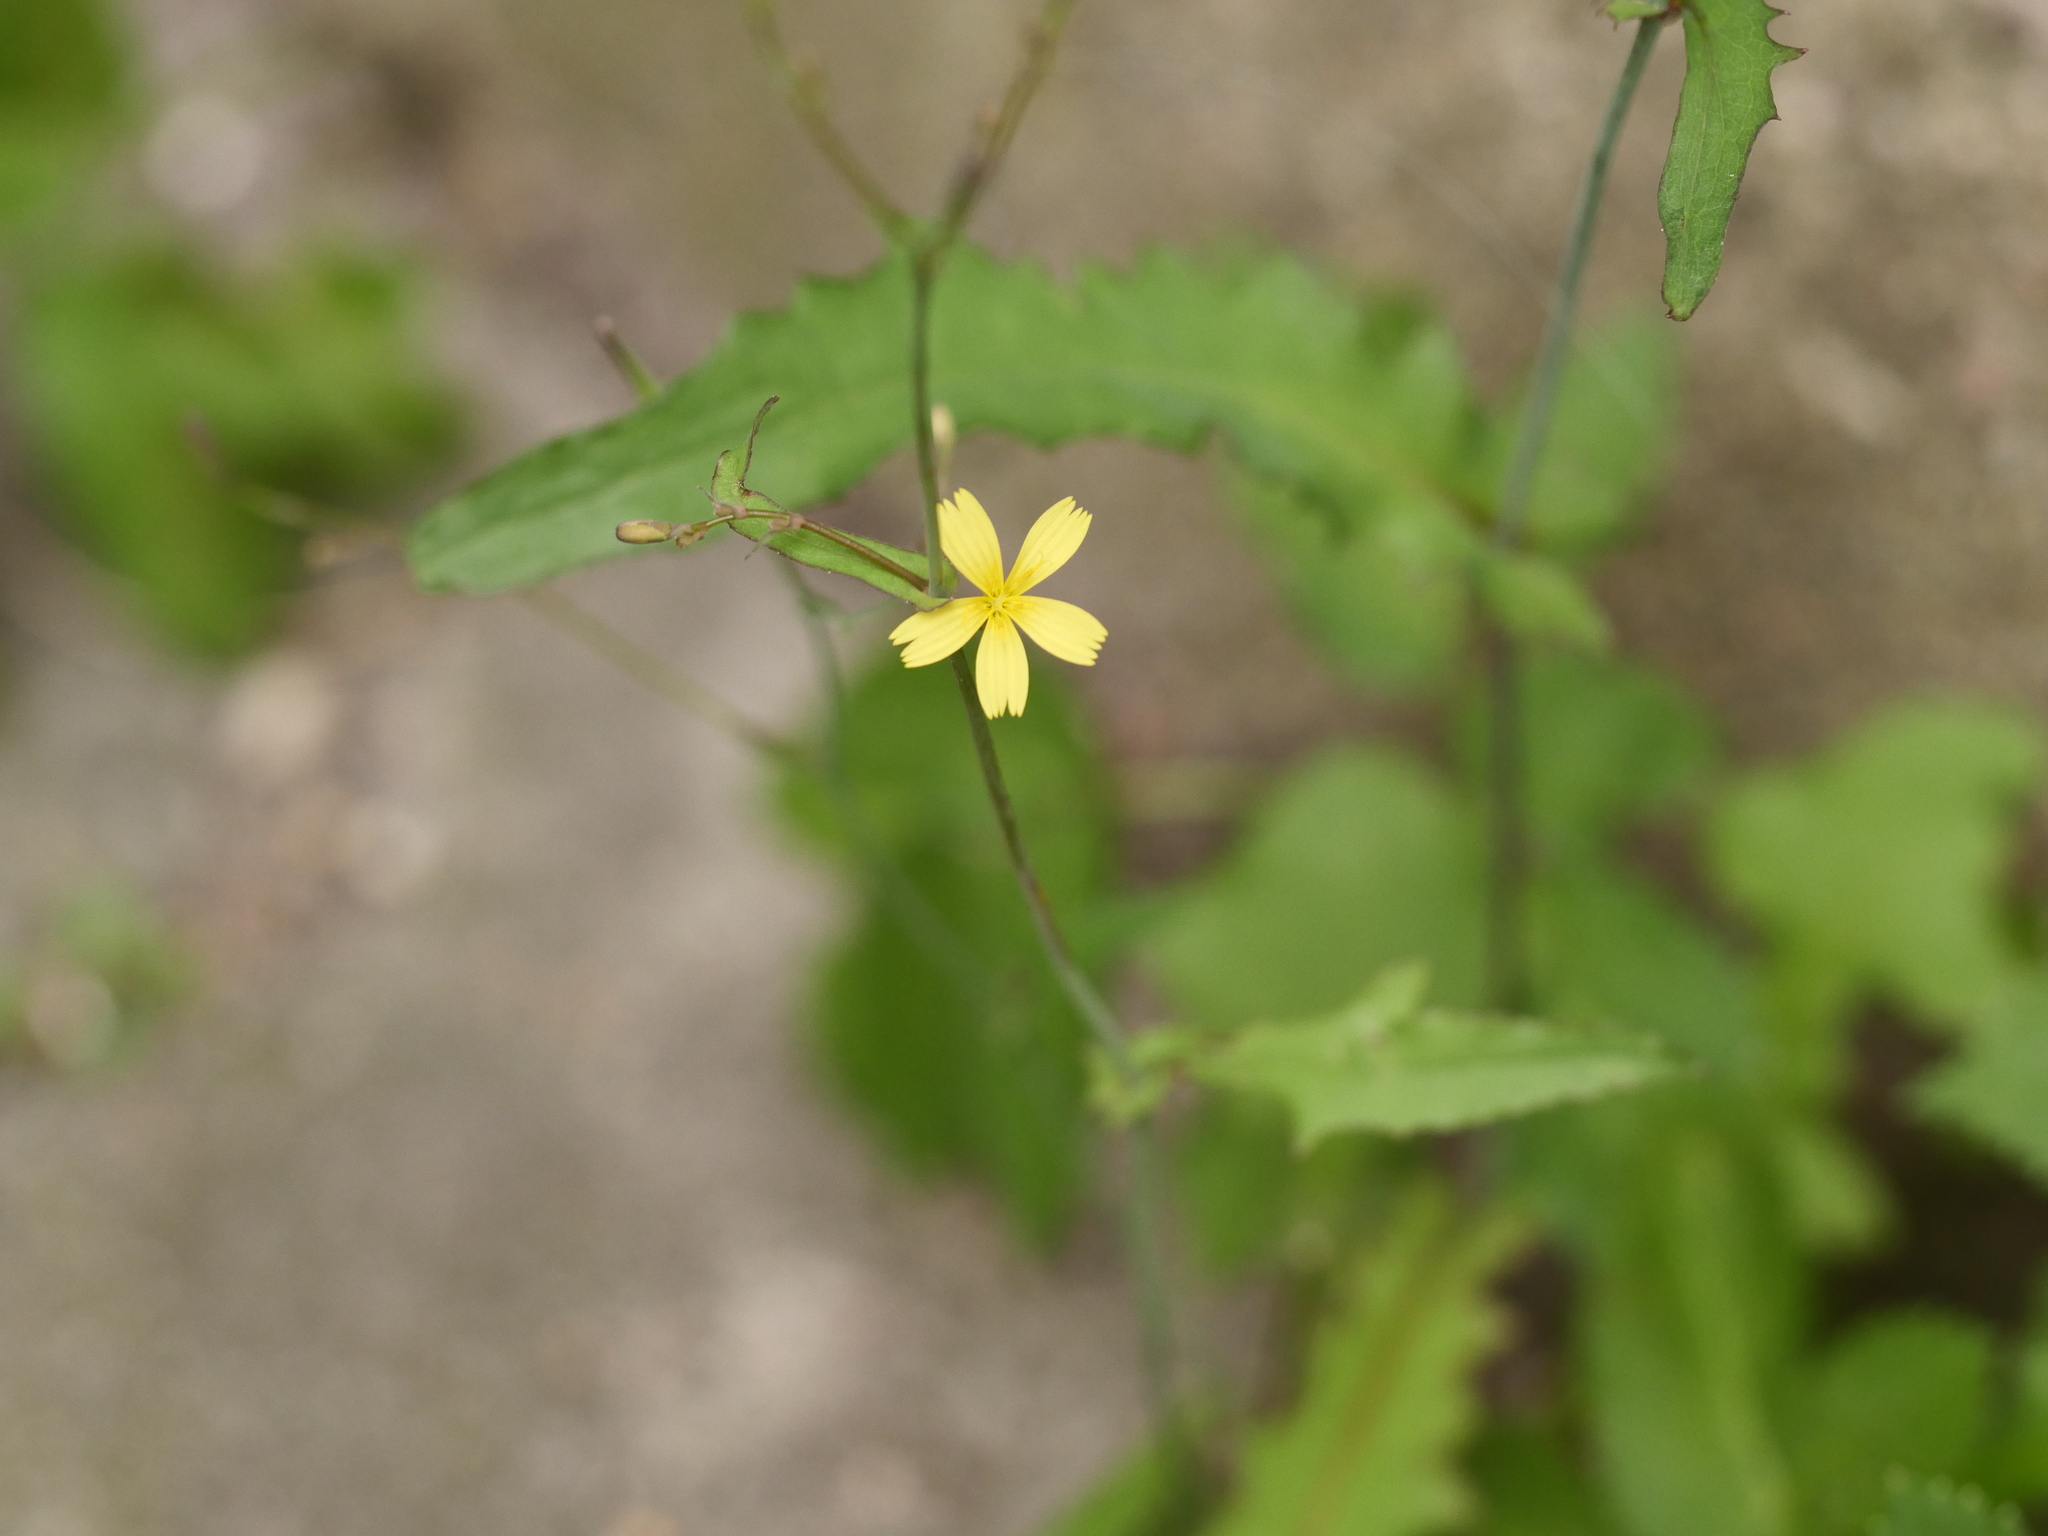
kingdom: Plantae
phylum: Tracheophyta
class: Magnoliopsida
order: Asterales
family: Asteraceae
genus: Mycelis
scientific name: Mycelis muralis
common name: Wall lettuce
